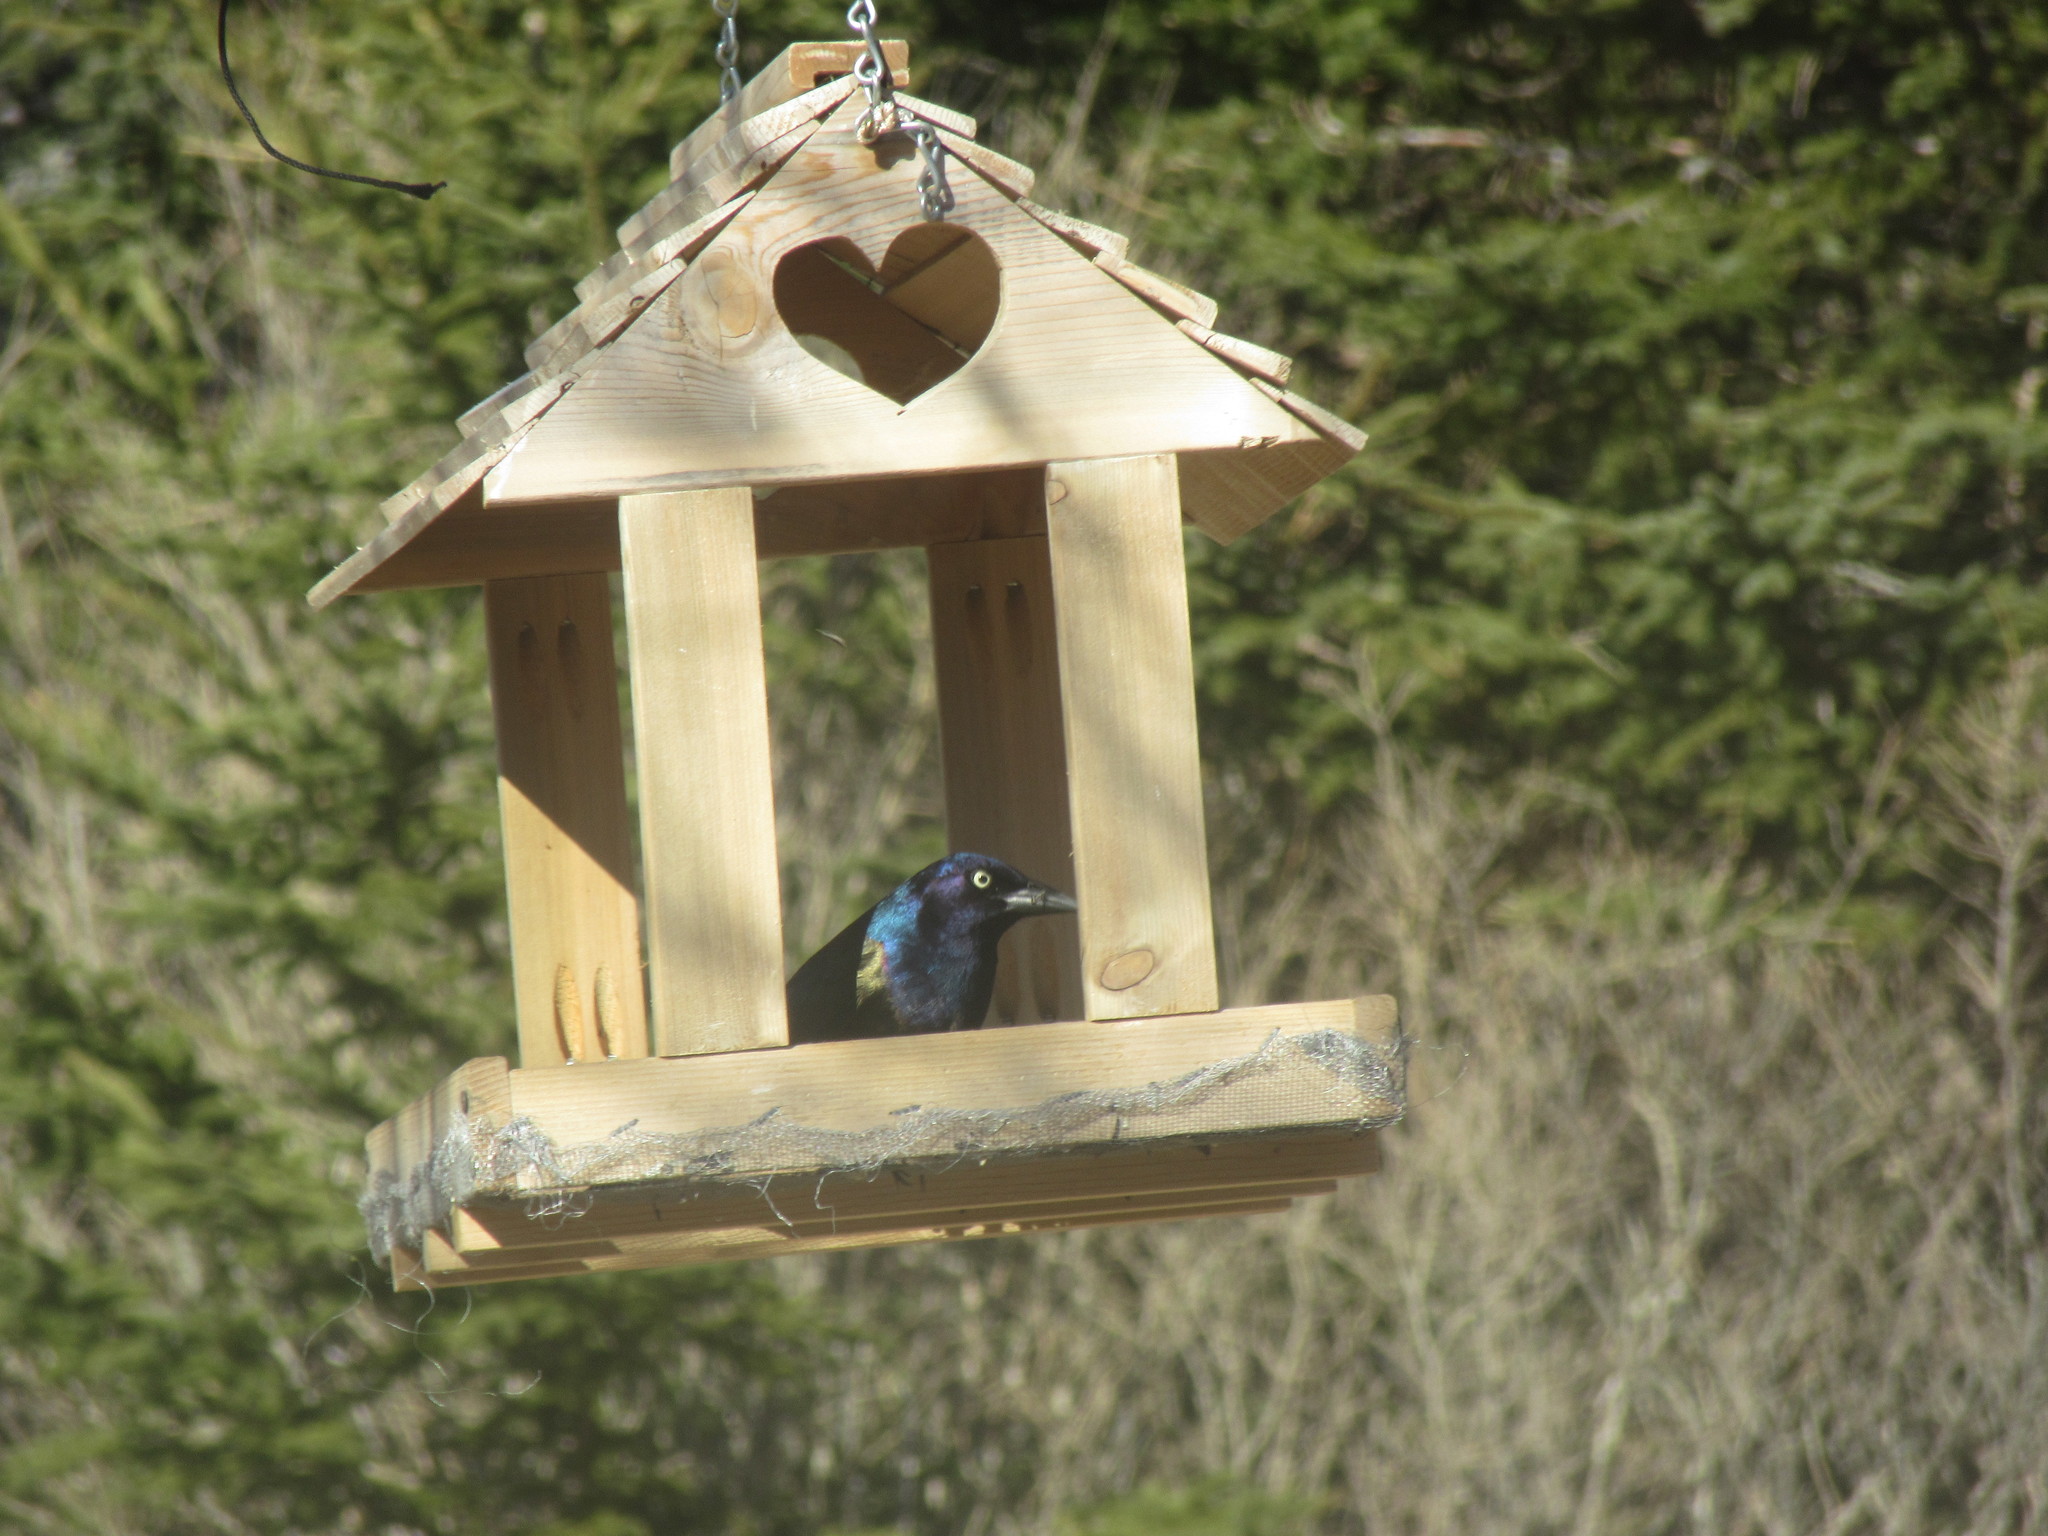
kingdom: Animalia
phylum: Chordata
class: Aves
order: Passeriformes
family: Icteridae
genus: Quiscalus
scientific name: Quiscalus quiscula
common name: Common grackle
